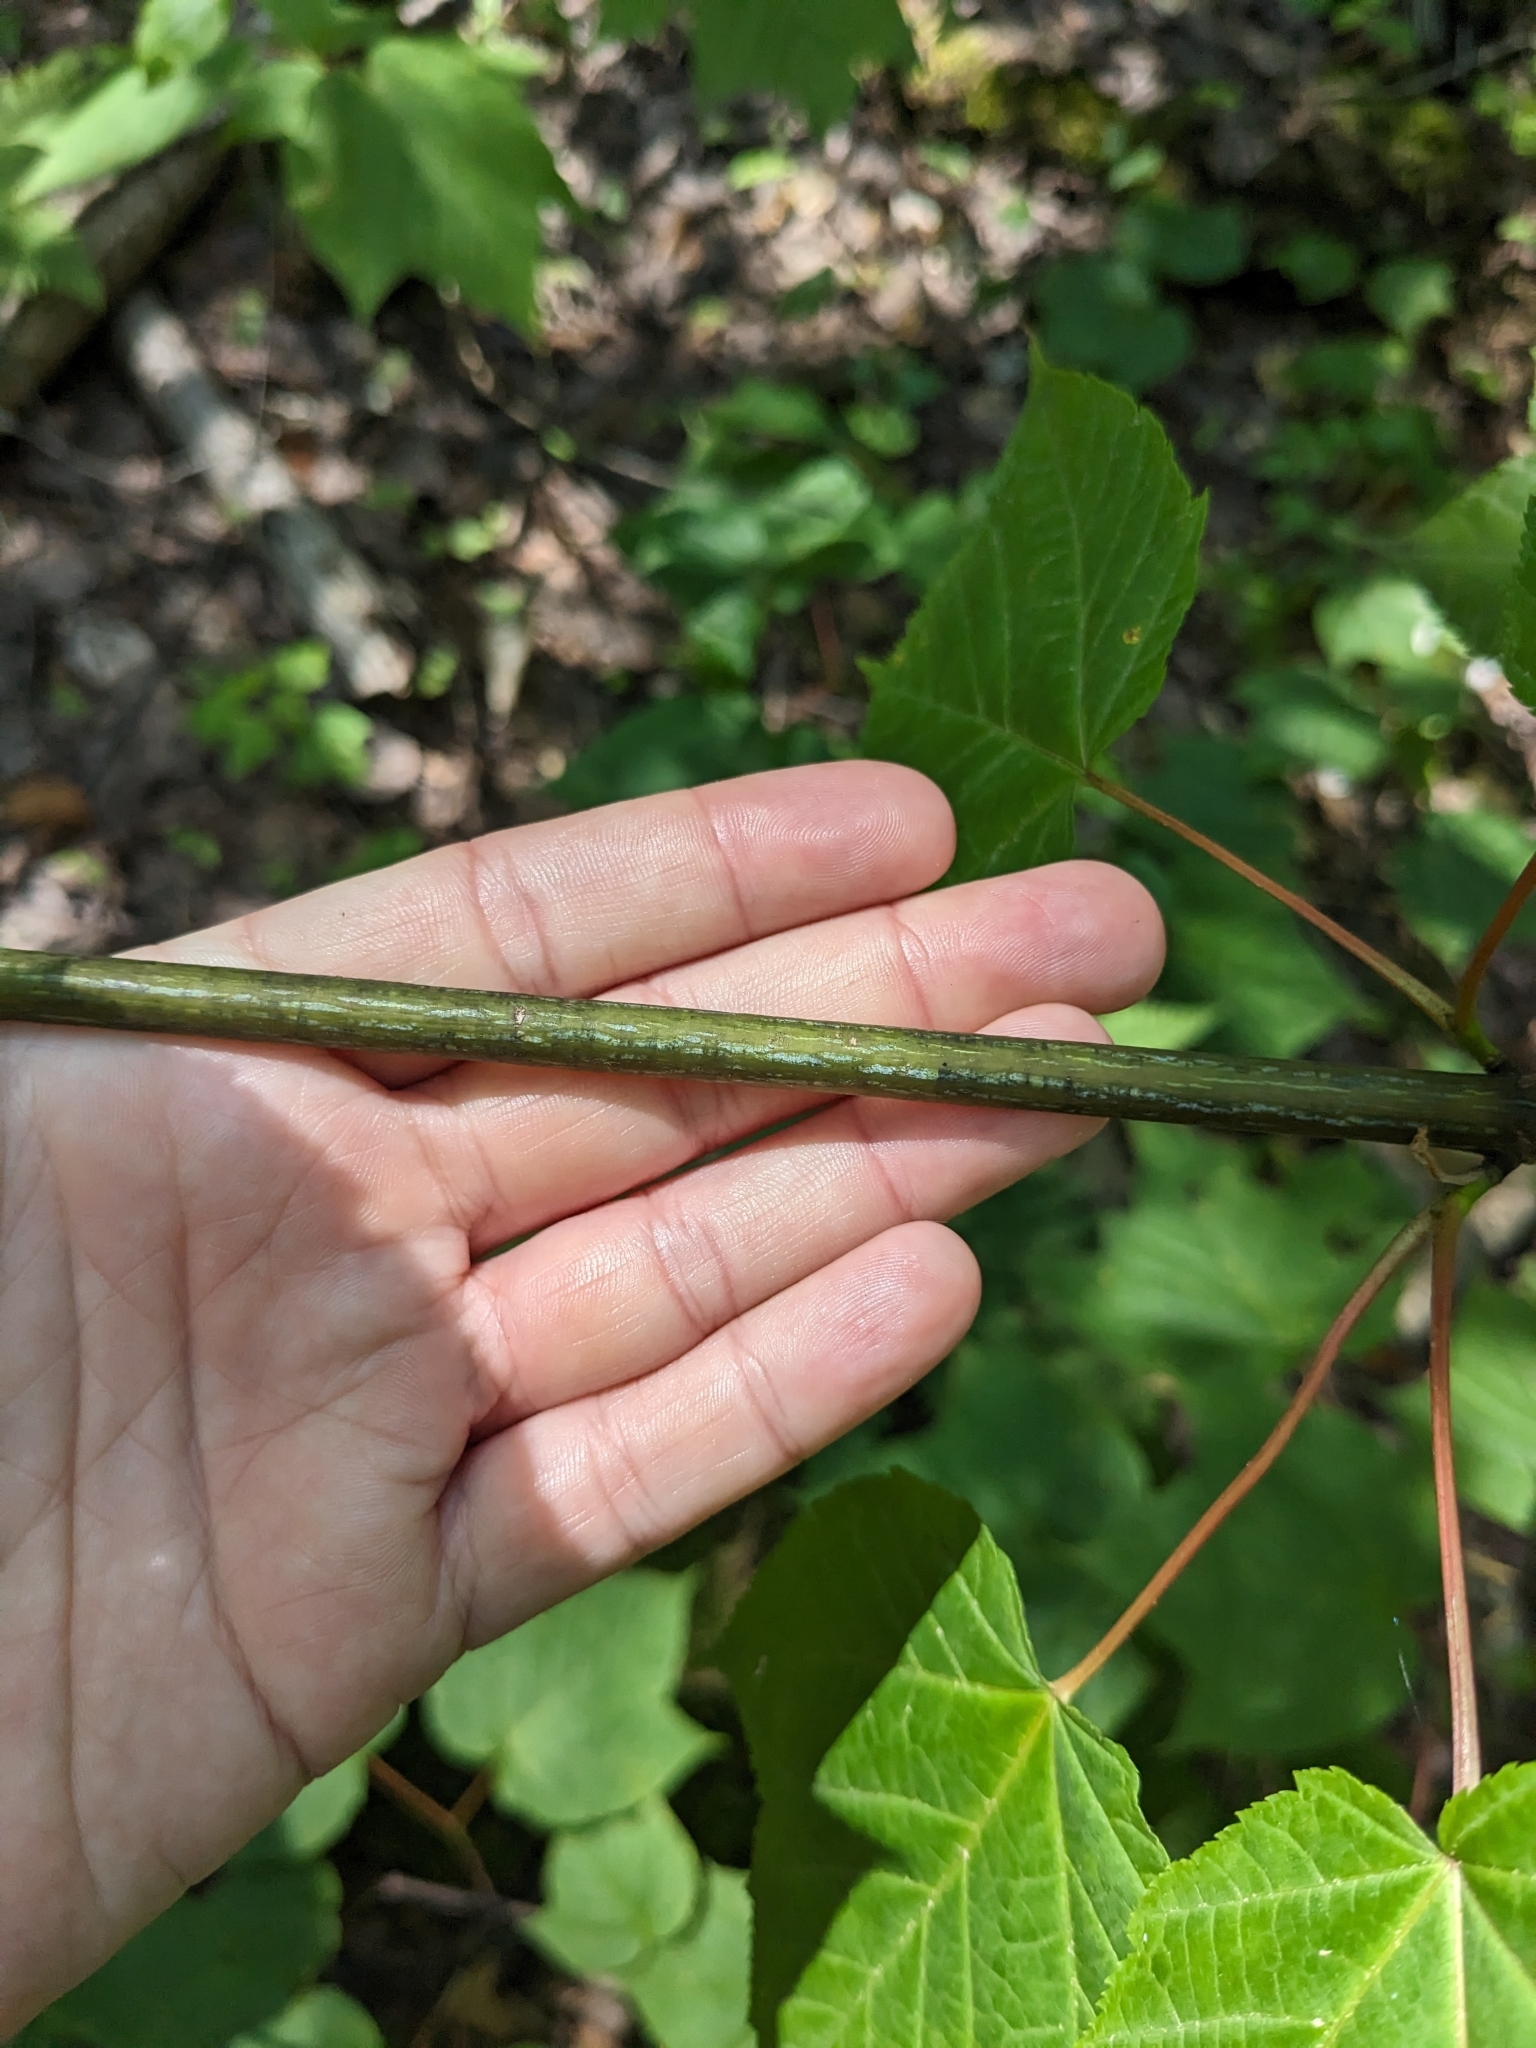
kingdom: Plantae
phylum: Tracheophyta
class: Magnoliopsida
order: Sapindales
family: Sapindaceae
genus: Acer
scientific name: Acer pensylvanicum
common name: Moosewood
